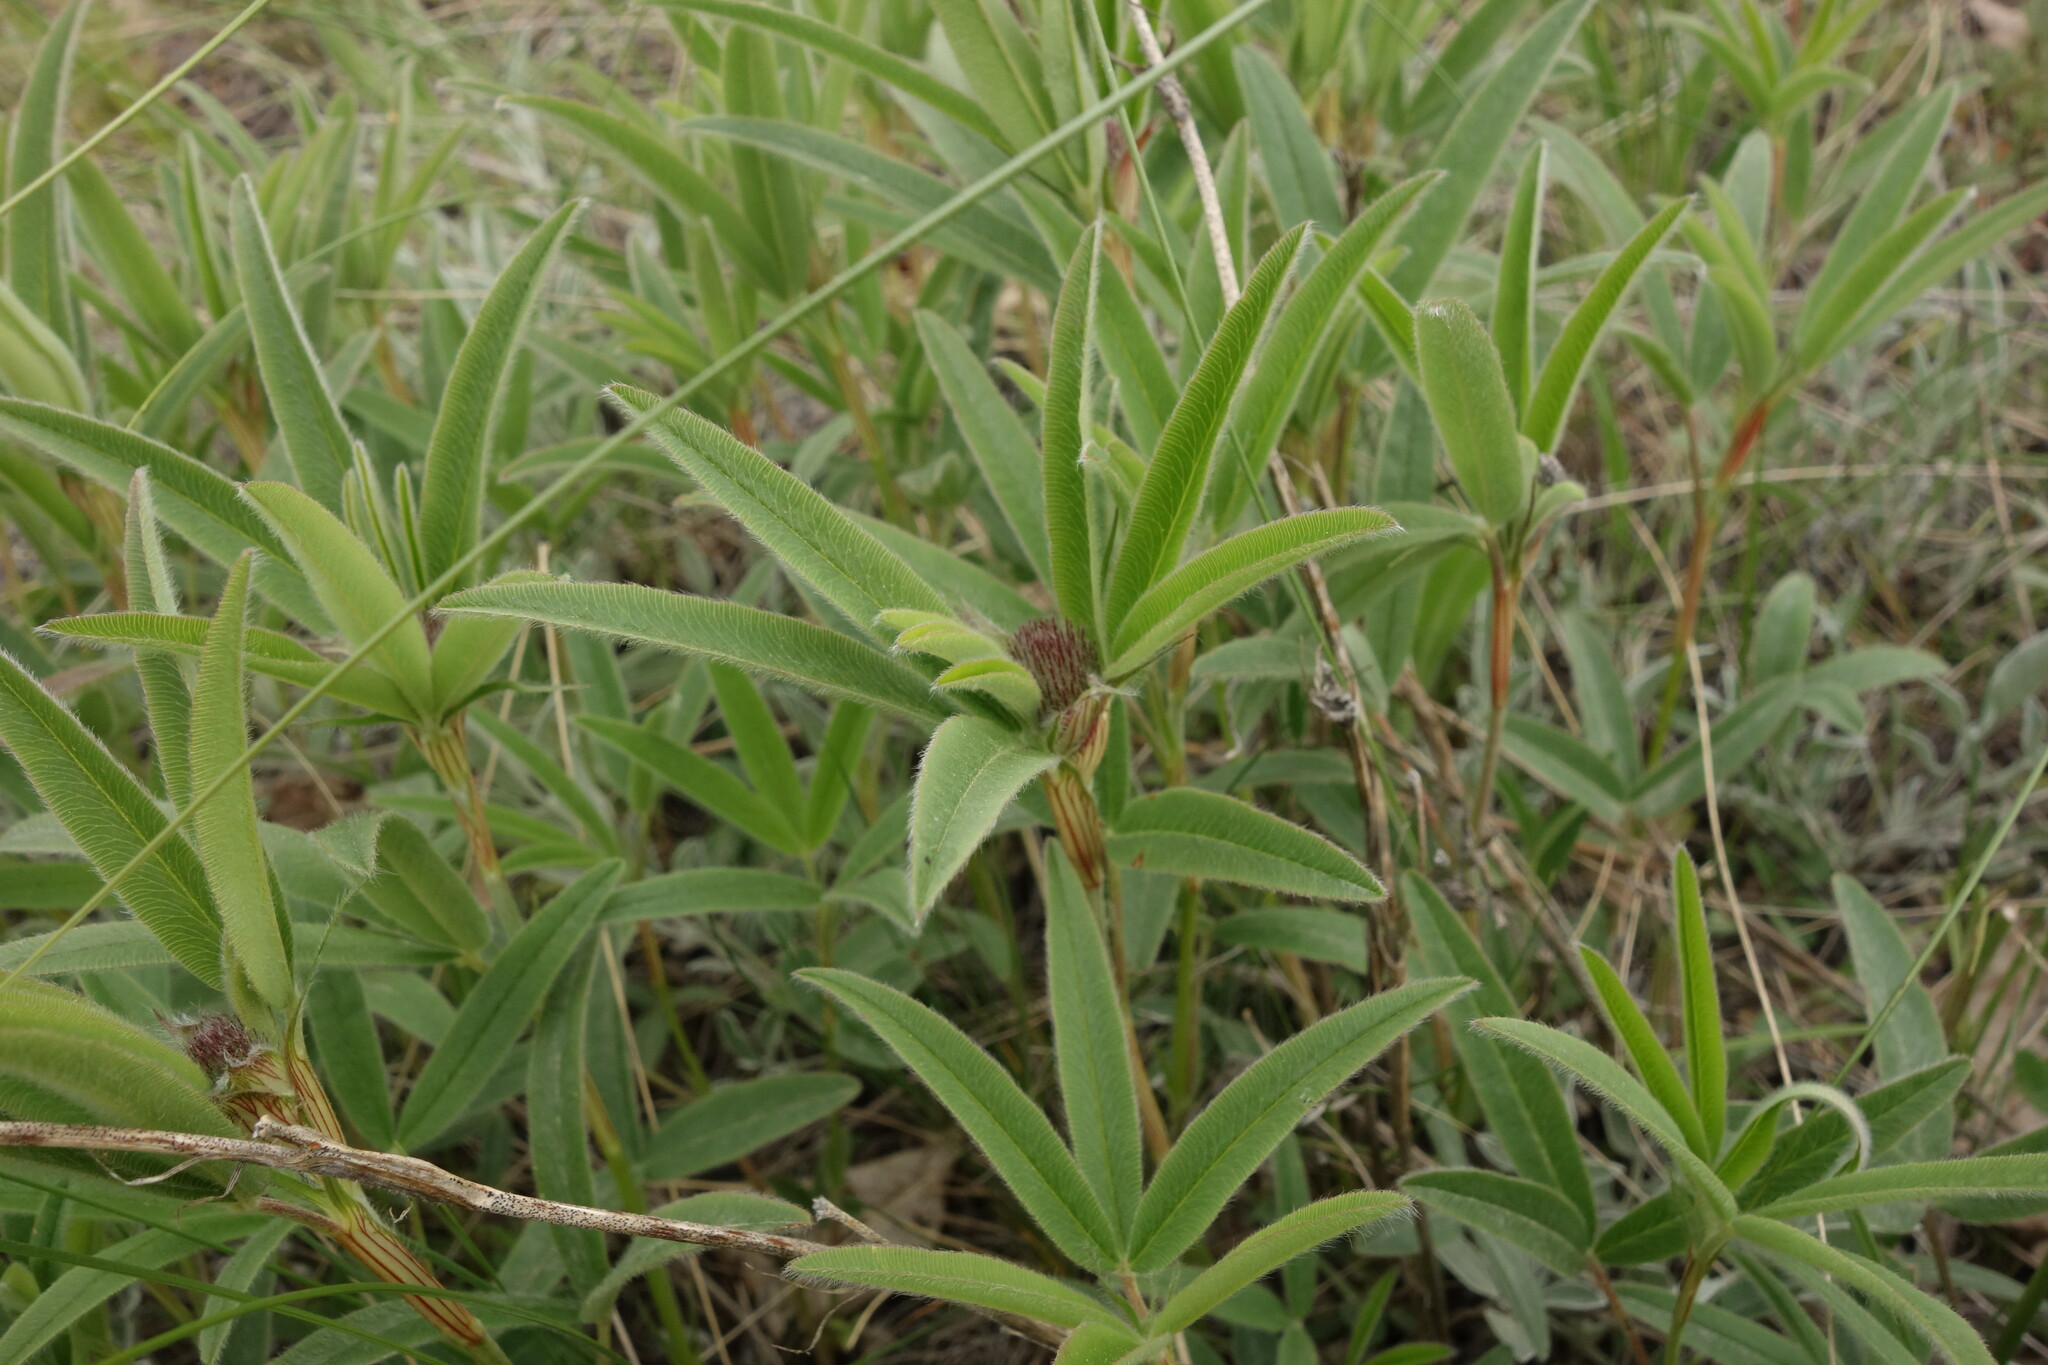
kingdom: Plantae
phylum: Tracheophyta
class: Magnoliopsida
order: Fabales
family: Fabaceae
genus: Trifolium
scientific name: Trifolium alpestre
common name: Owl-head clover
